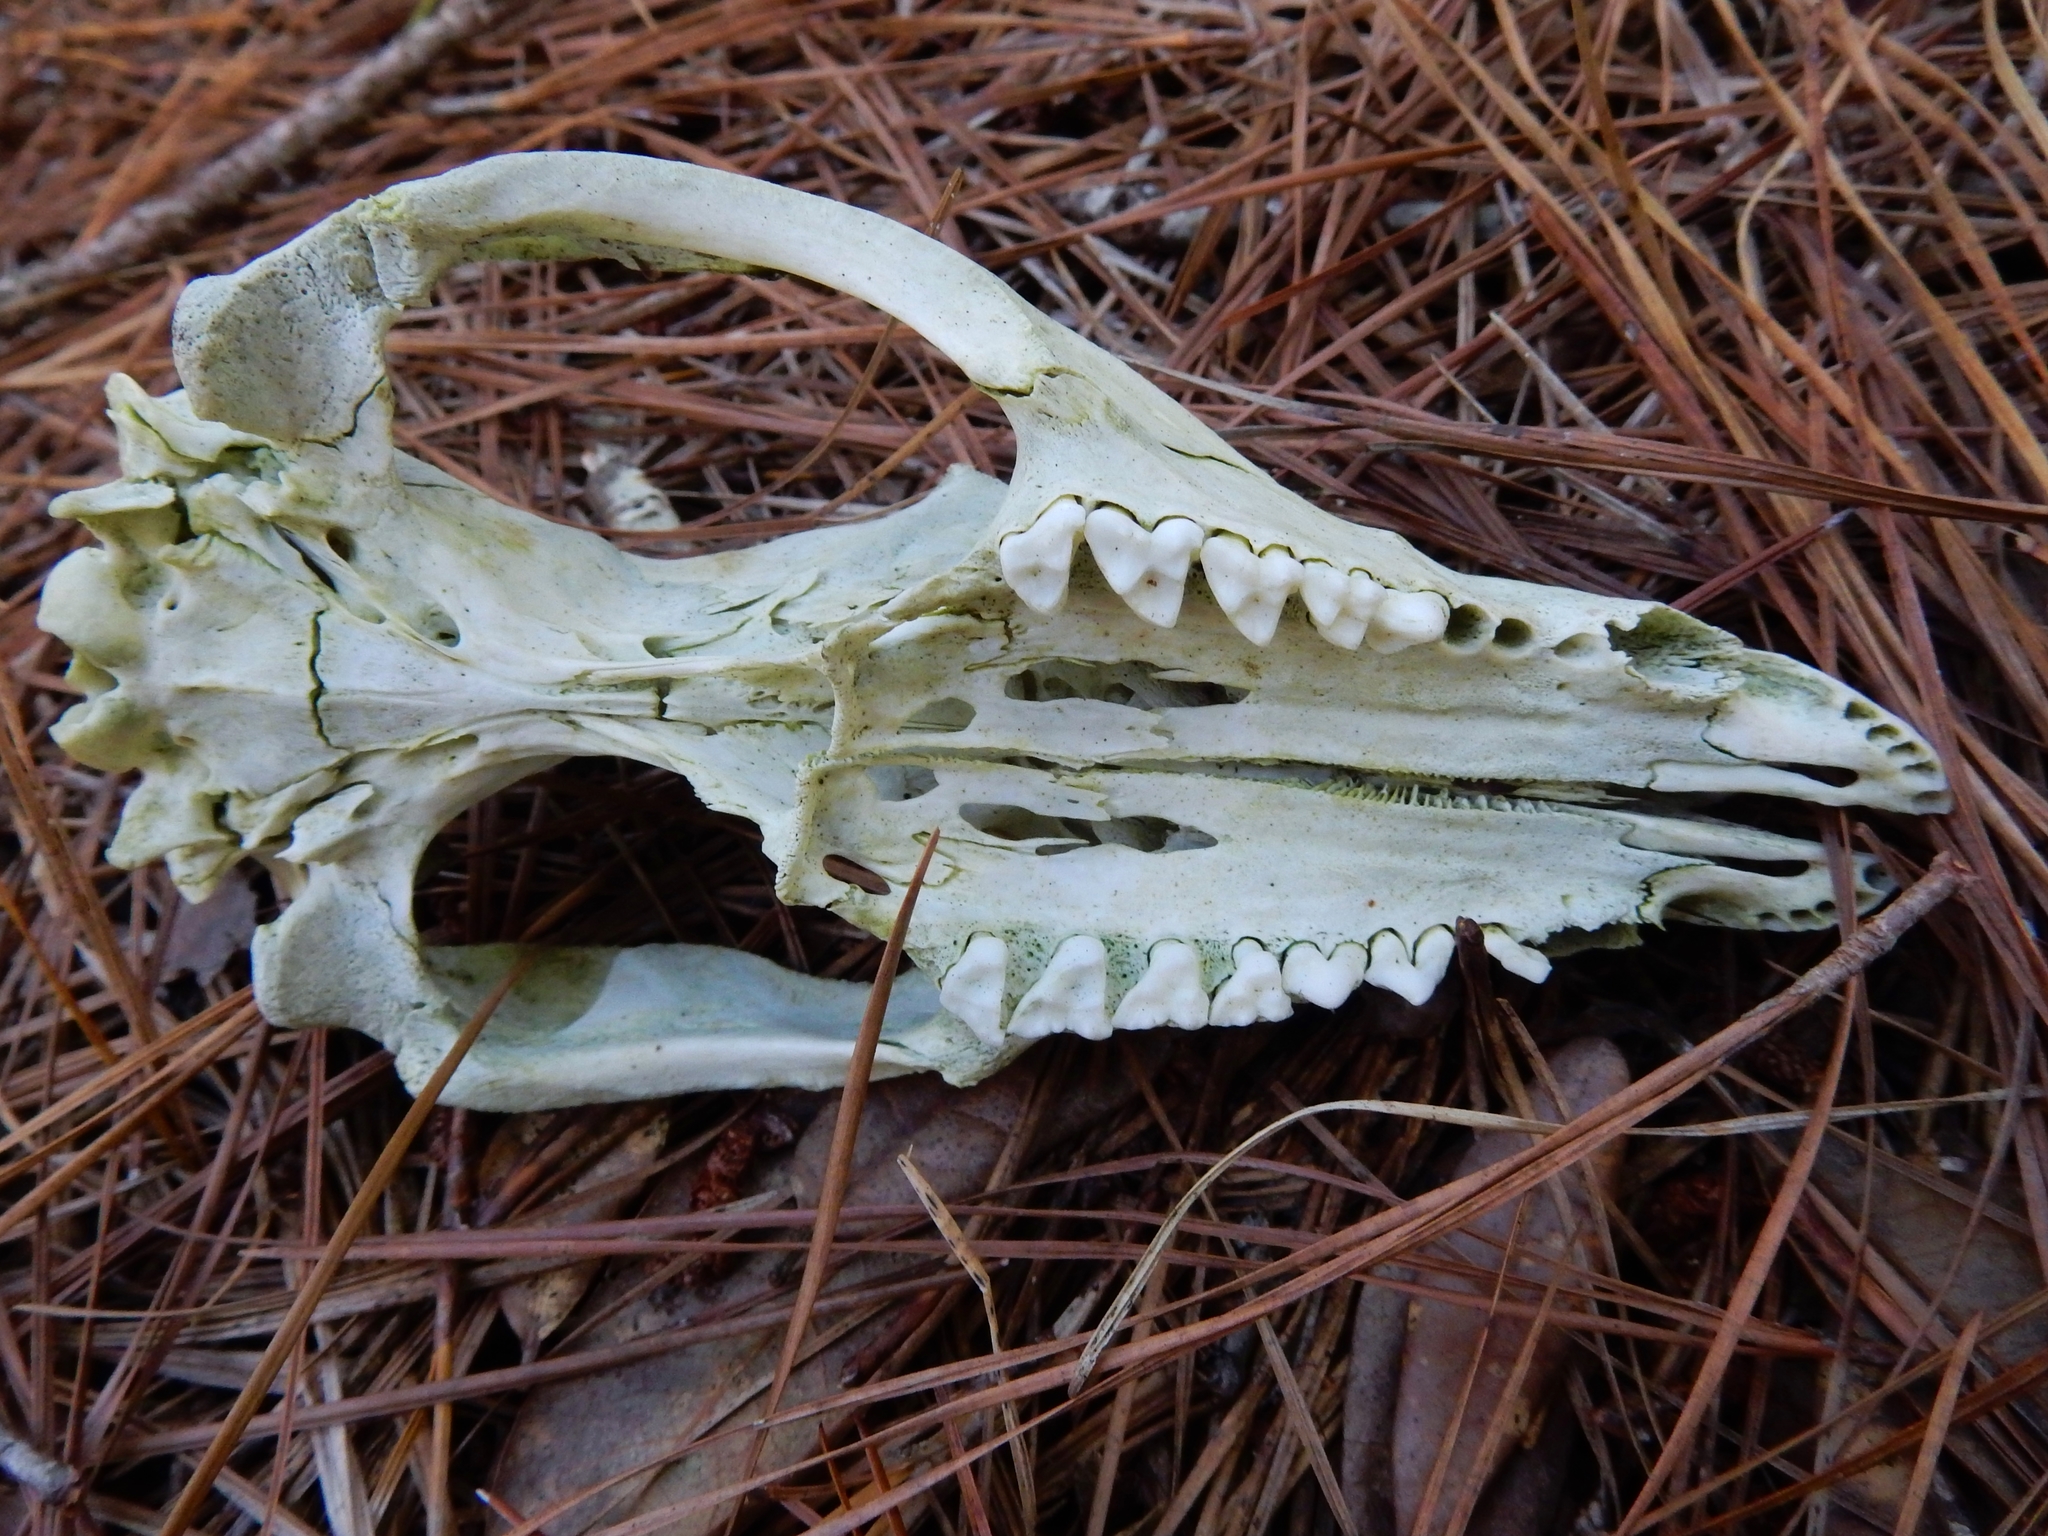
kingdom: Animalia
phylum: Chordata
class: Mammalia
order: Didelphimorphia
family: Didelphidae
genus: Didelphis
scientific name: Didelphis virginiana
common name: Virginia opossum
